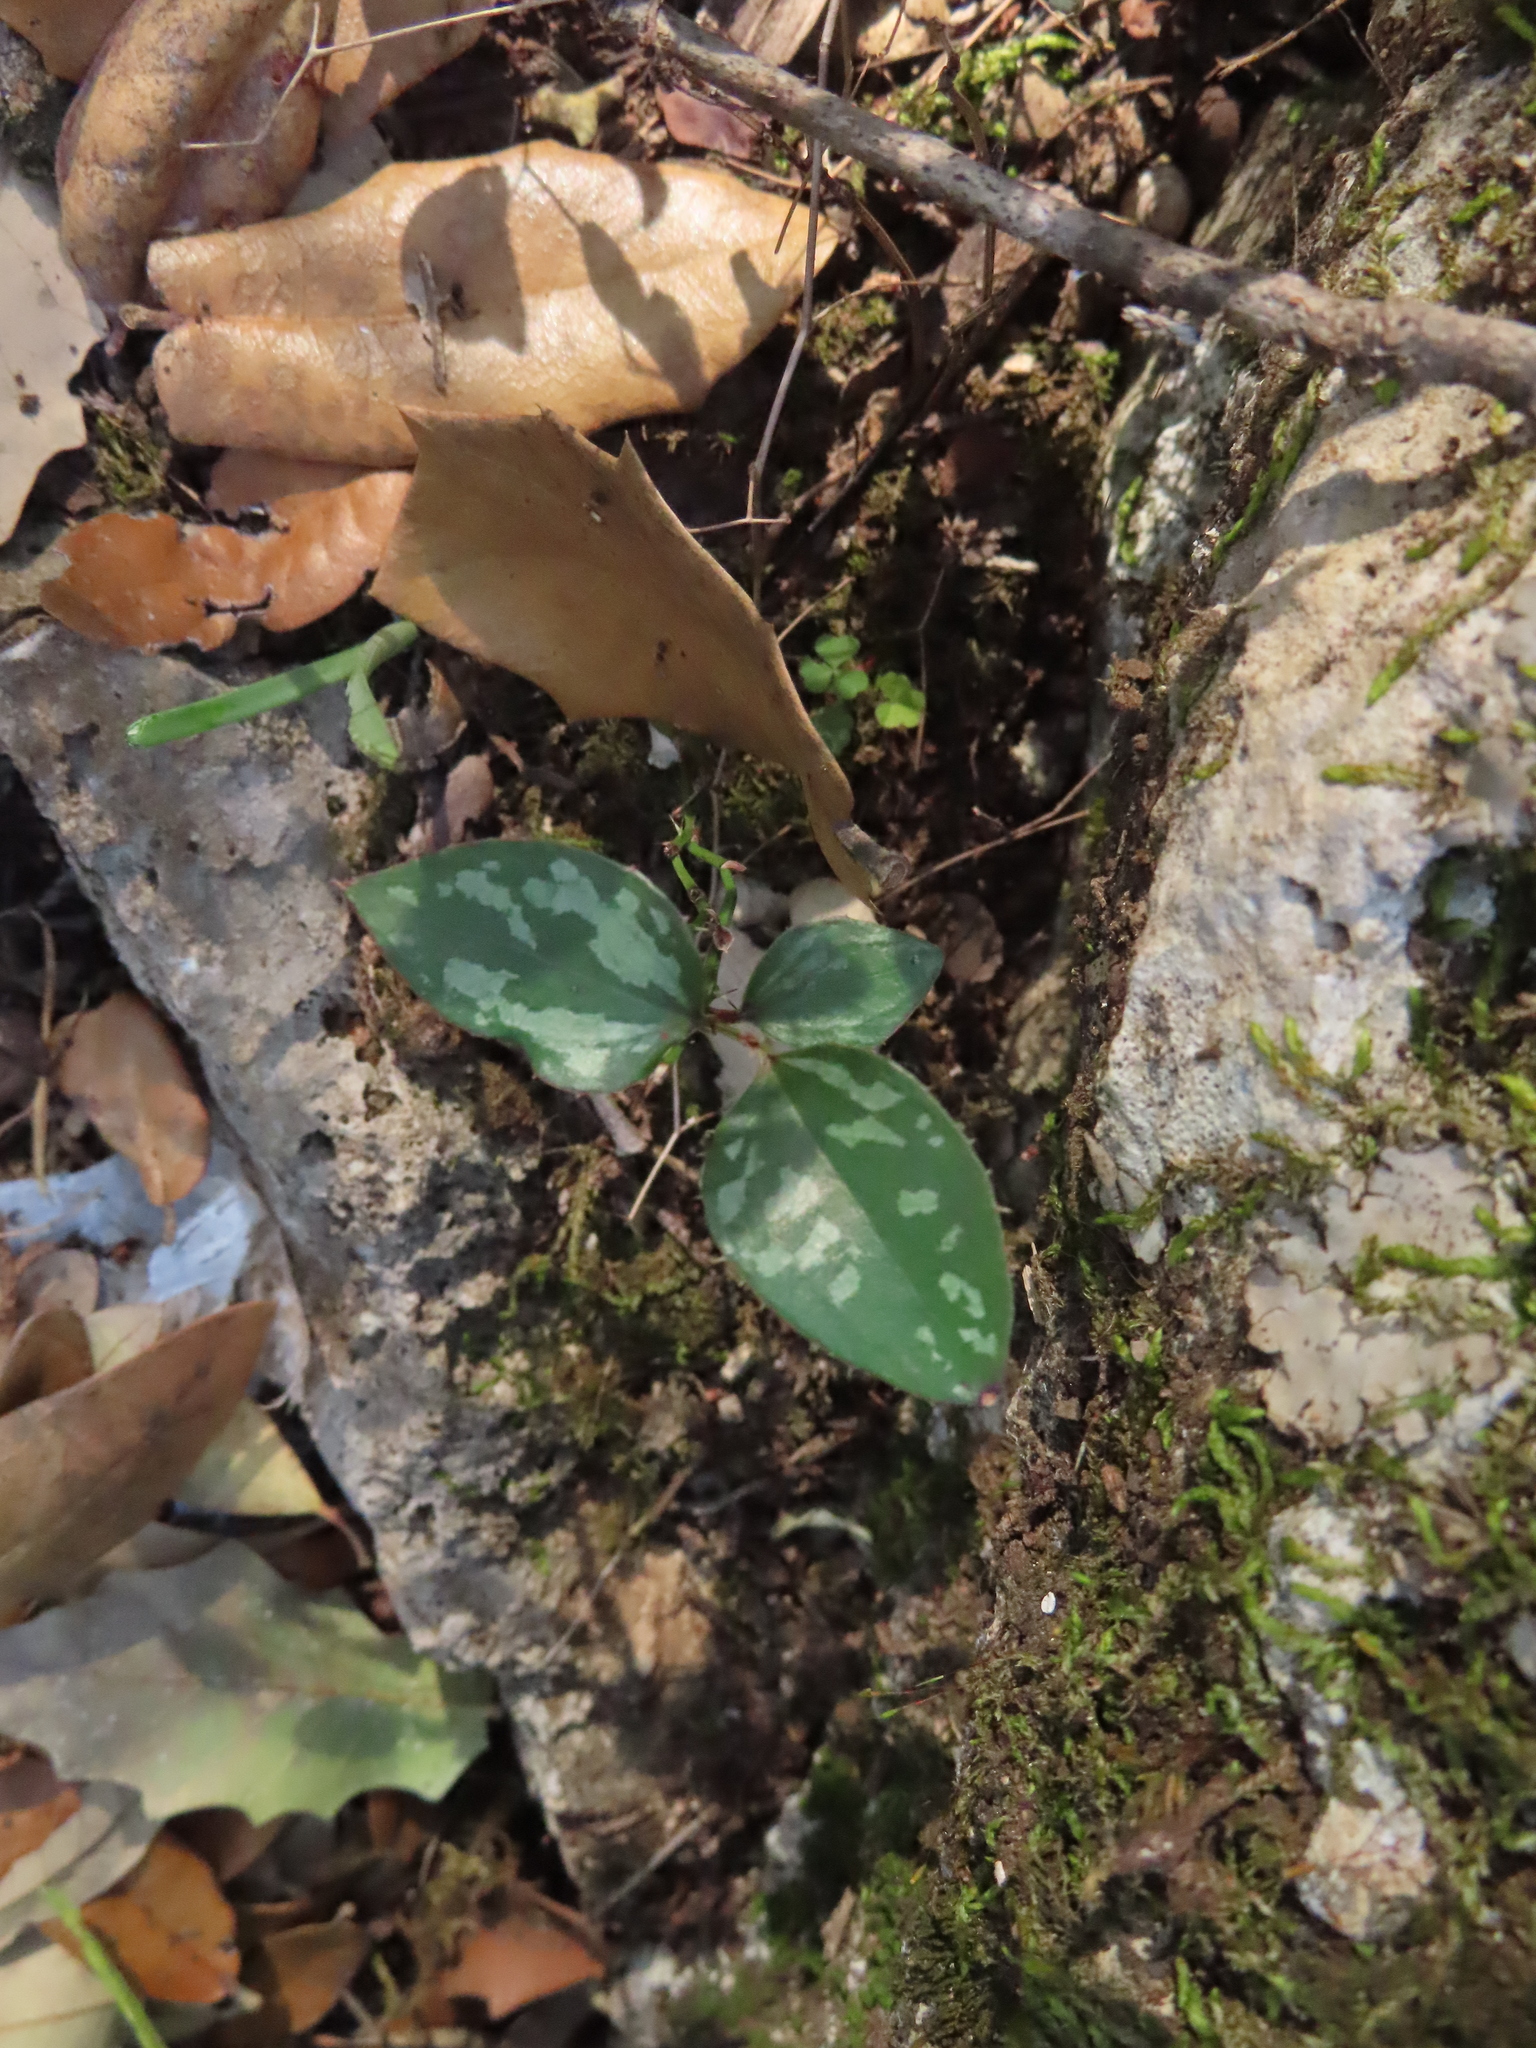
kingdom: Plantae
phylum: Tracheophyta
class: Liliopsida
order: Liliales
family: Smilacaceae
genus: Smilax
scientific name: Smilax bona-nox
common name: Catbrier
